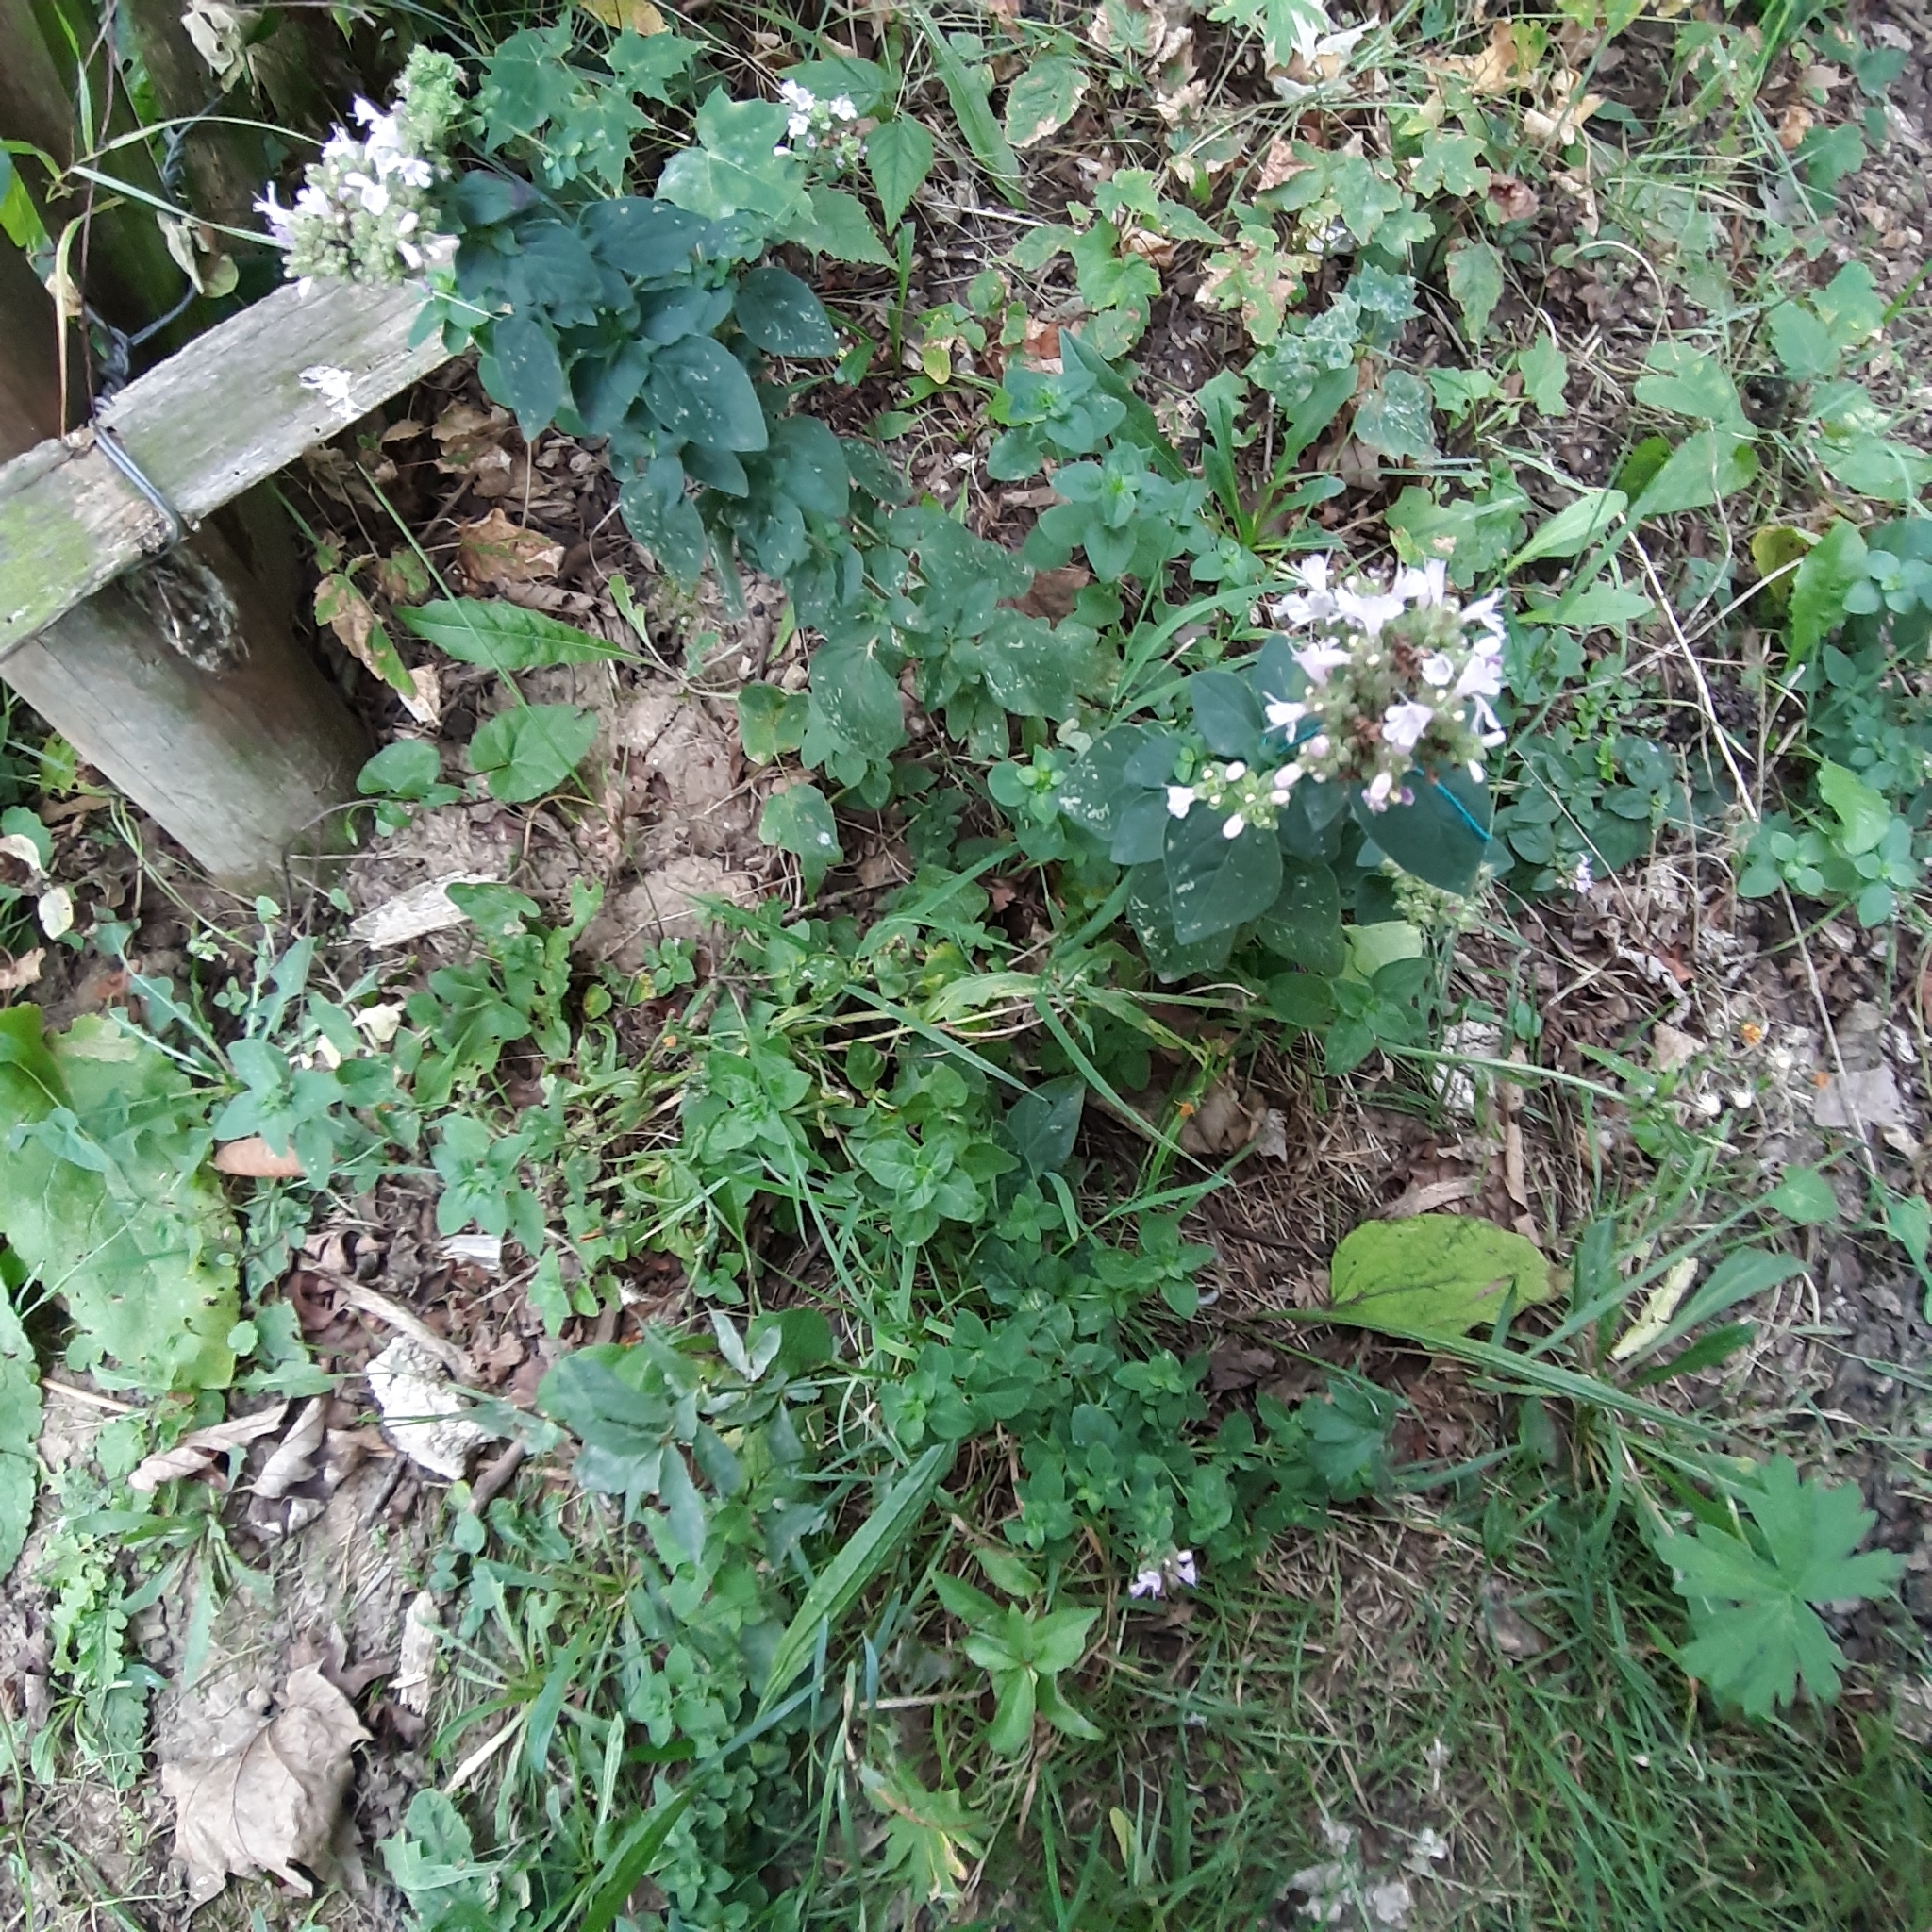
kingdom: Plantae
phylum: Tracheophyta
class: Magnoliopsida
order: Lamiales
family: Lamiaceae
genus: Origanum
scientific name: Origanum vulgare
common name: Wild marjoram
